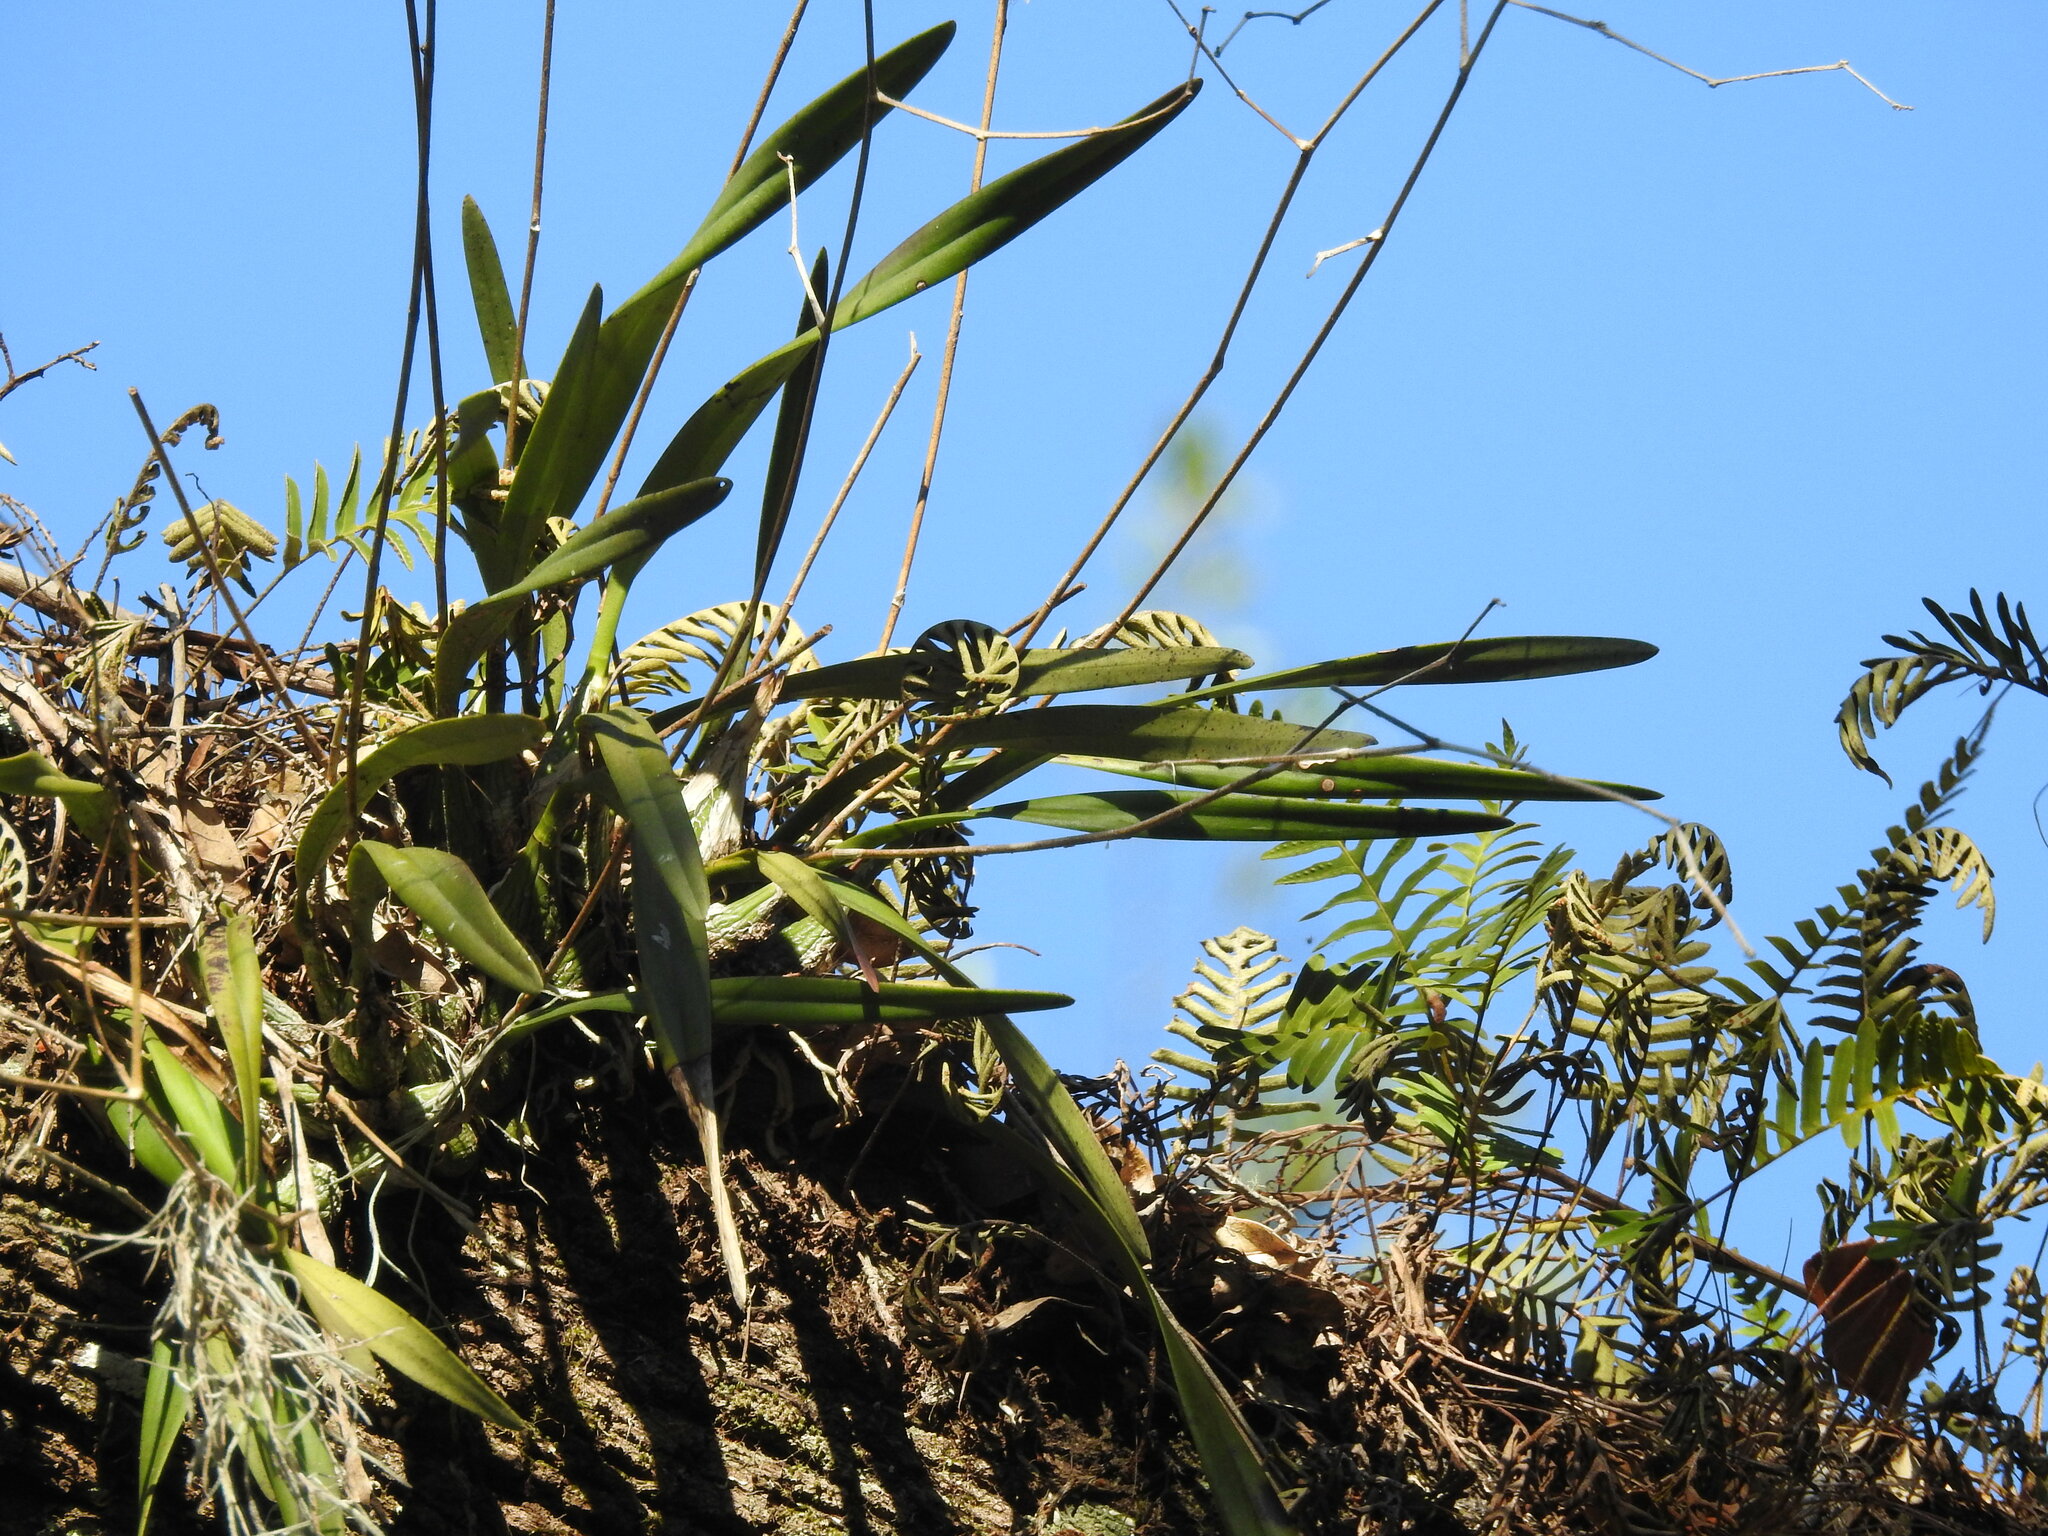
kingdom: Plantae
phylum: Tracheophyta
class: Liliopsida
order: Asparagales
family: Orchidaceae
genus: Encyclia
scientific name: Encyclia tampensis
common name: Florida butterfly orchid
